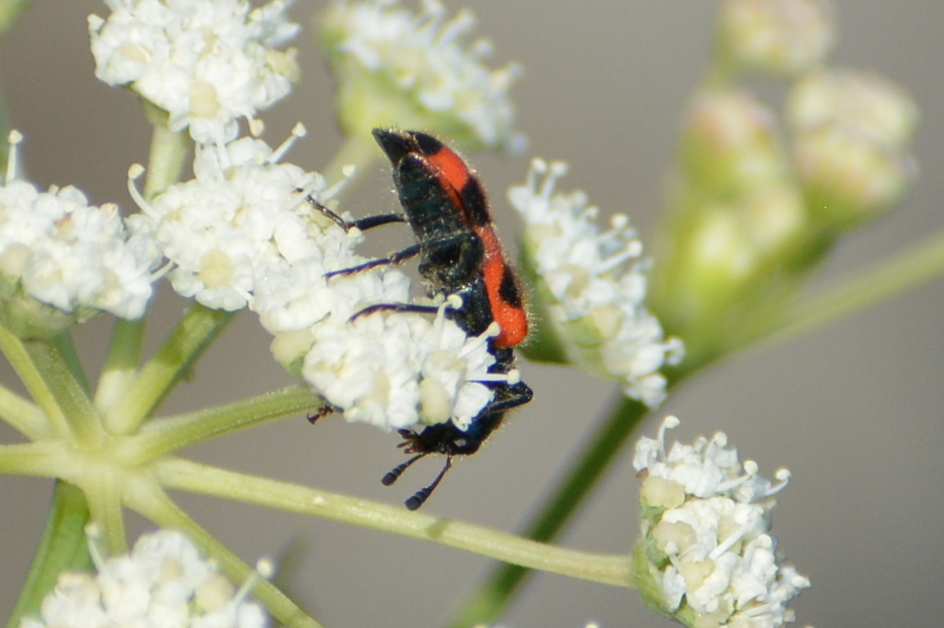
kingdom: Animalia
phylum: Arthropoda
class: Insecta
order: Coleoptera
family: Cleridae
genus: Trichodes
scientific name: Trichodes apiarius
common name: Bee-eating beetle
